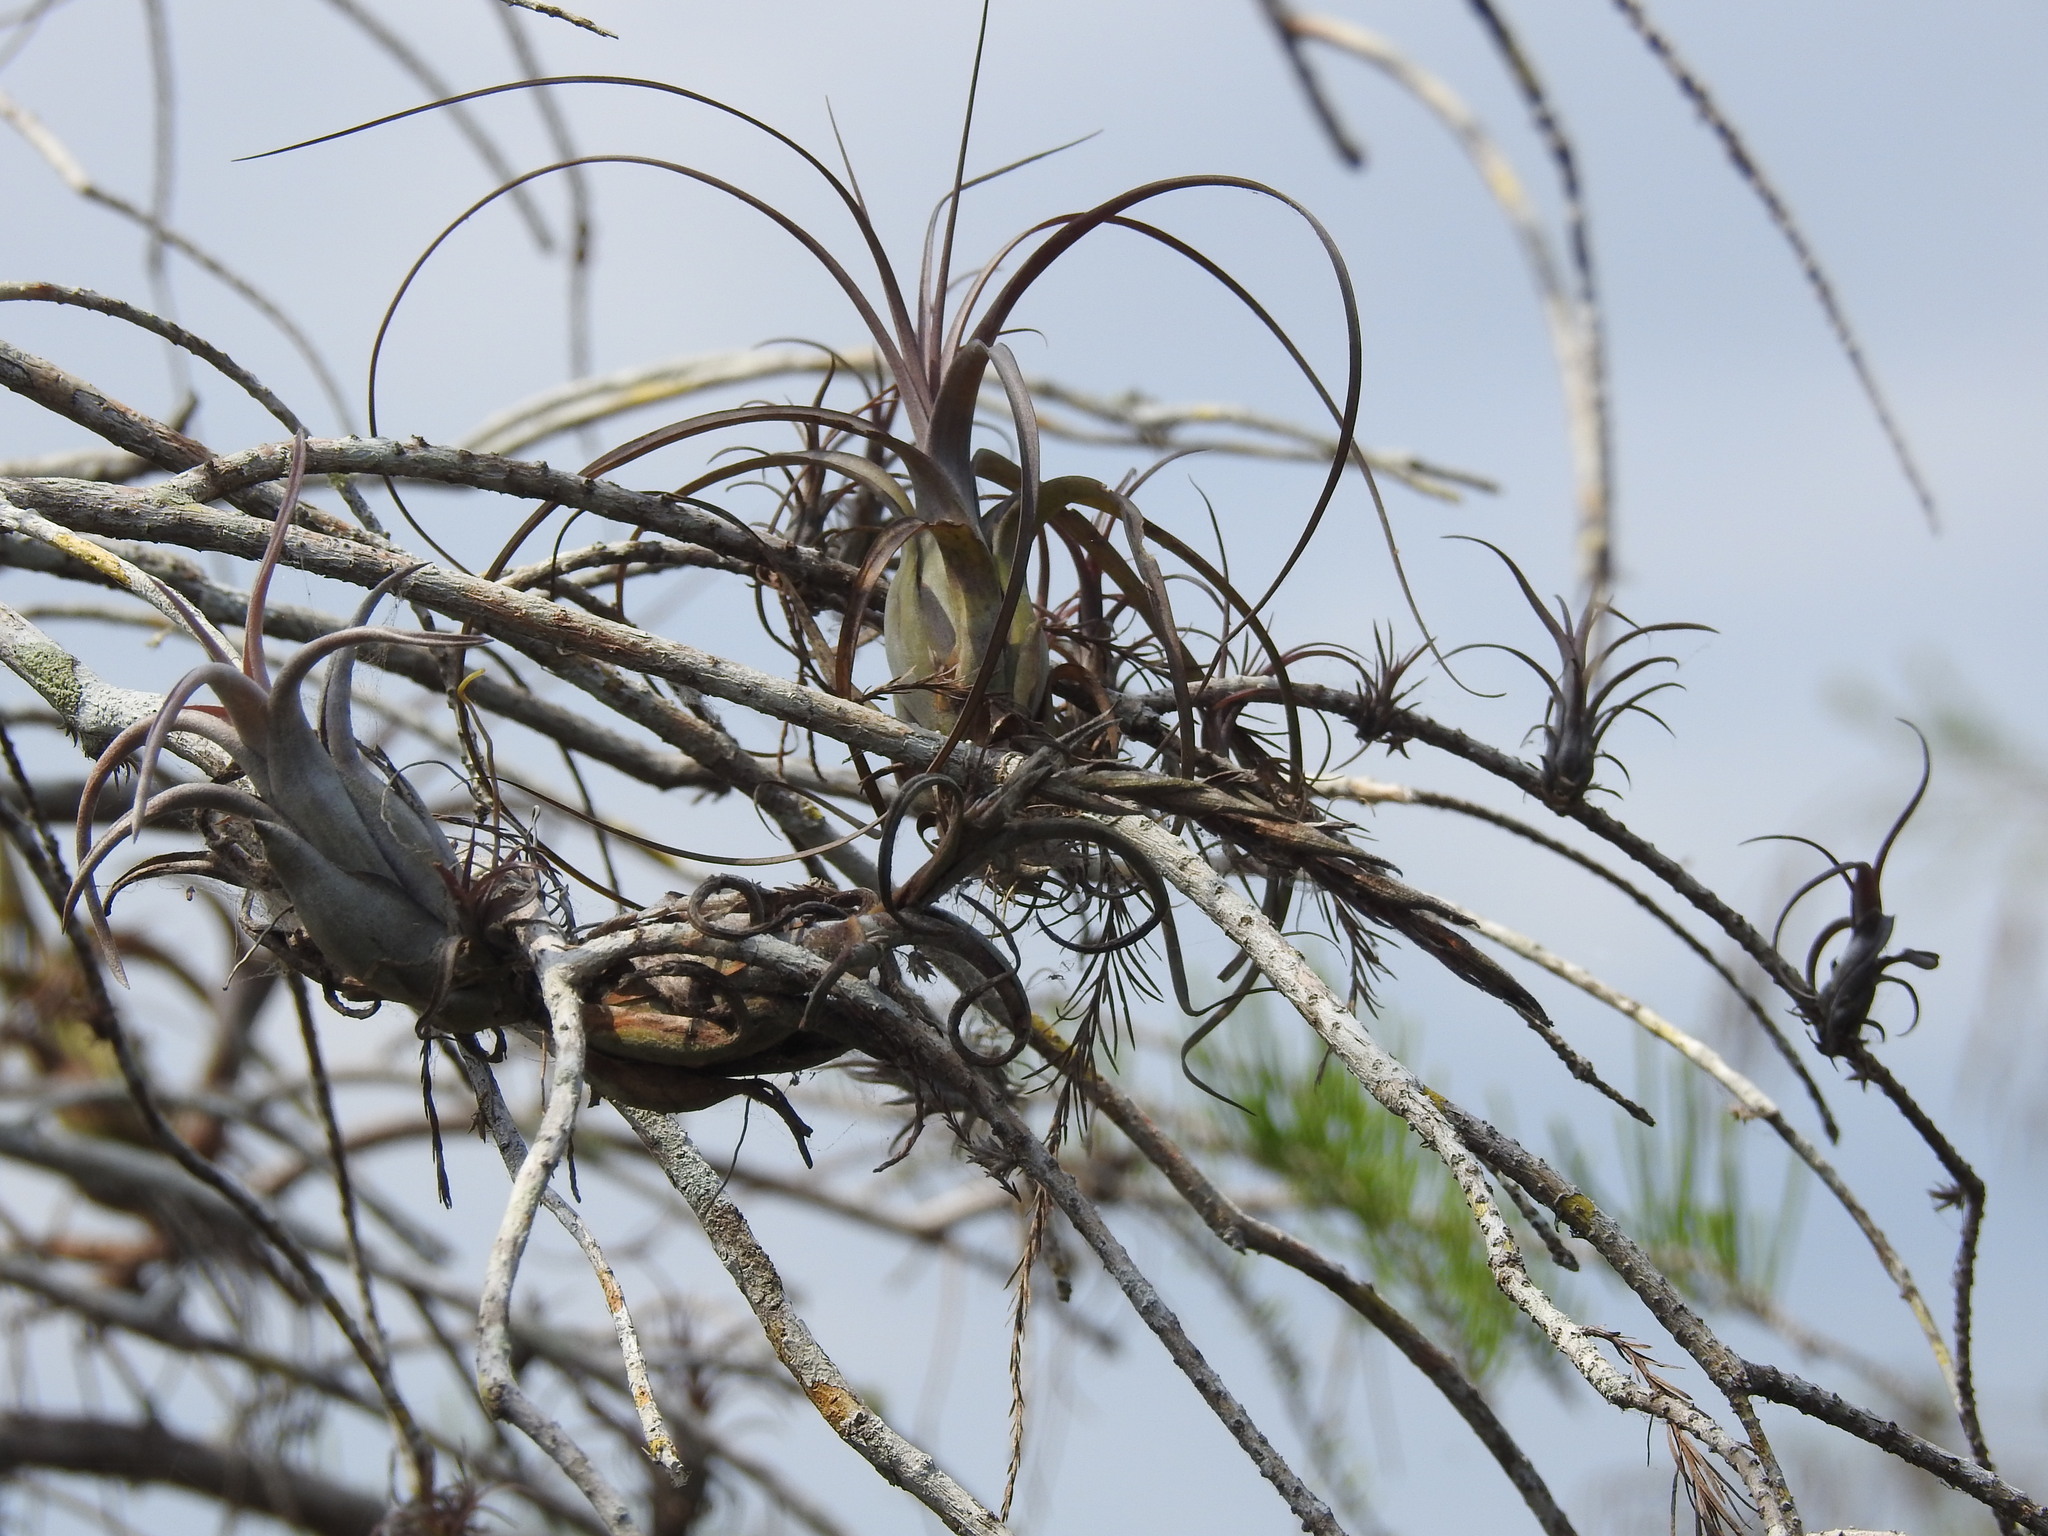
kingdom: Plantae
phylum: Tracheophyta
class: Liliopsida
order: Poales
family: Bromeliaceae
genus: Tillandsia
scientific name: Tillandsia balbisiana
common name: Northern needleleaf
